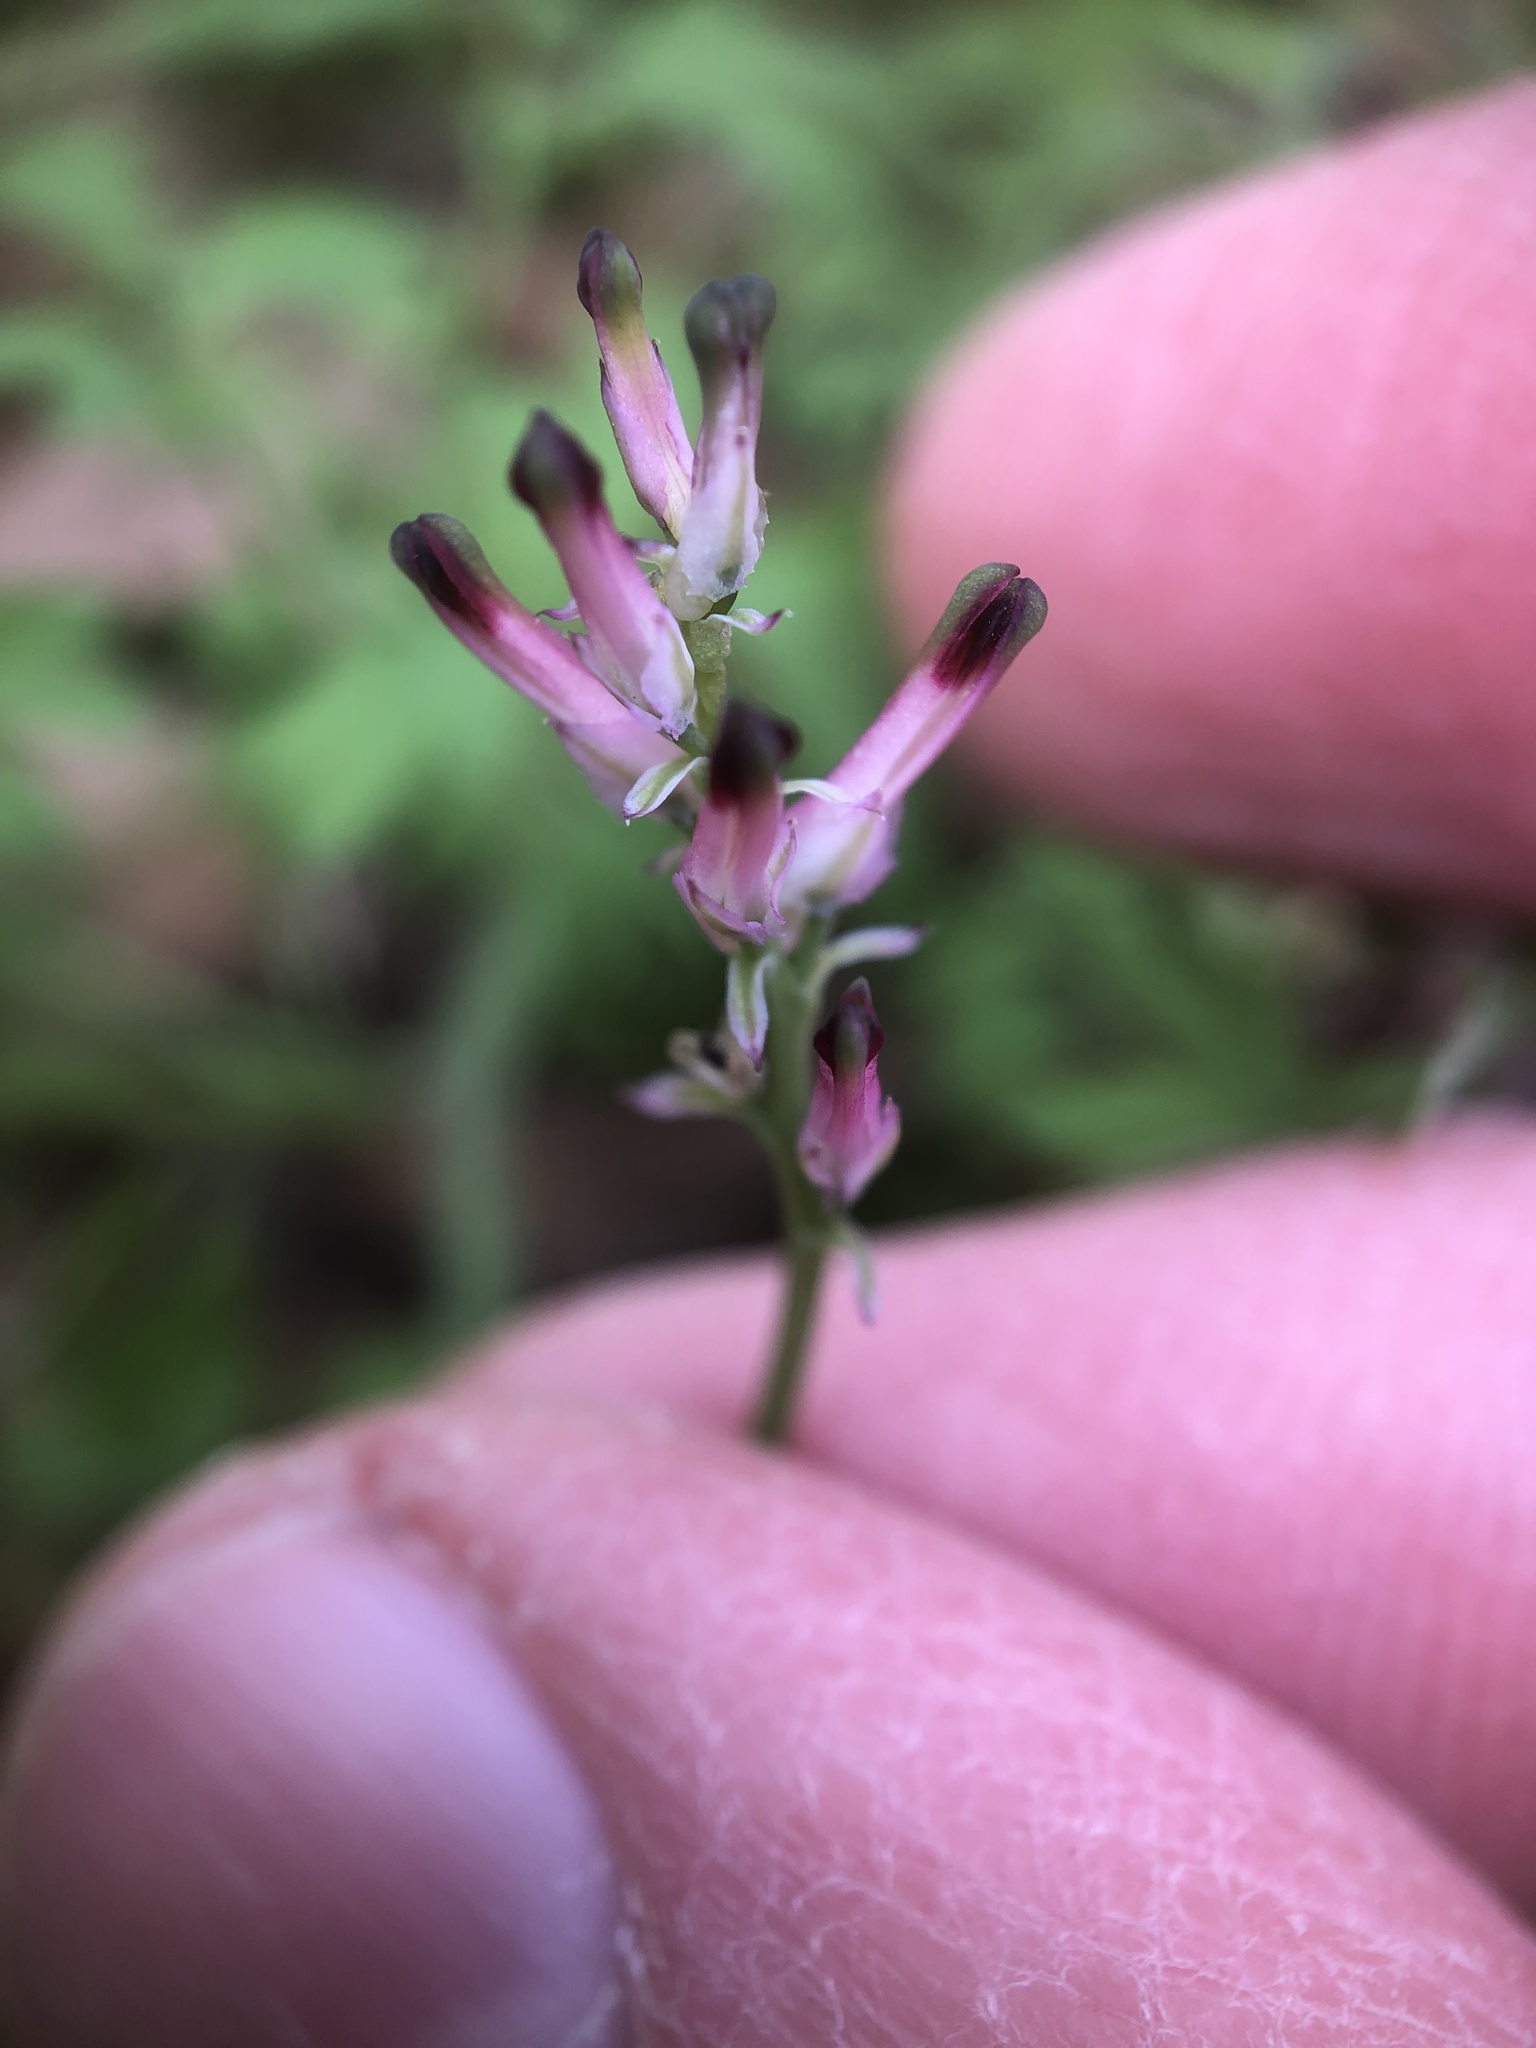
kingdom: Plantae
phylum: Tracheophyta
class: Magnoliopsida
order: Ranunculales
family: Papaveraceae
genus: Fumaria
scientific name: Fumaria muralis
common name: Common ramping-fumitory
